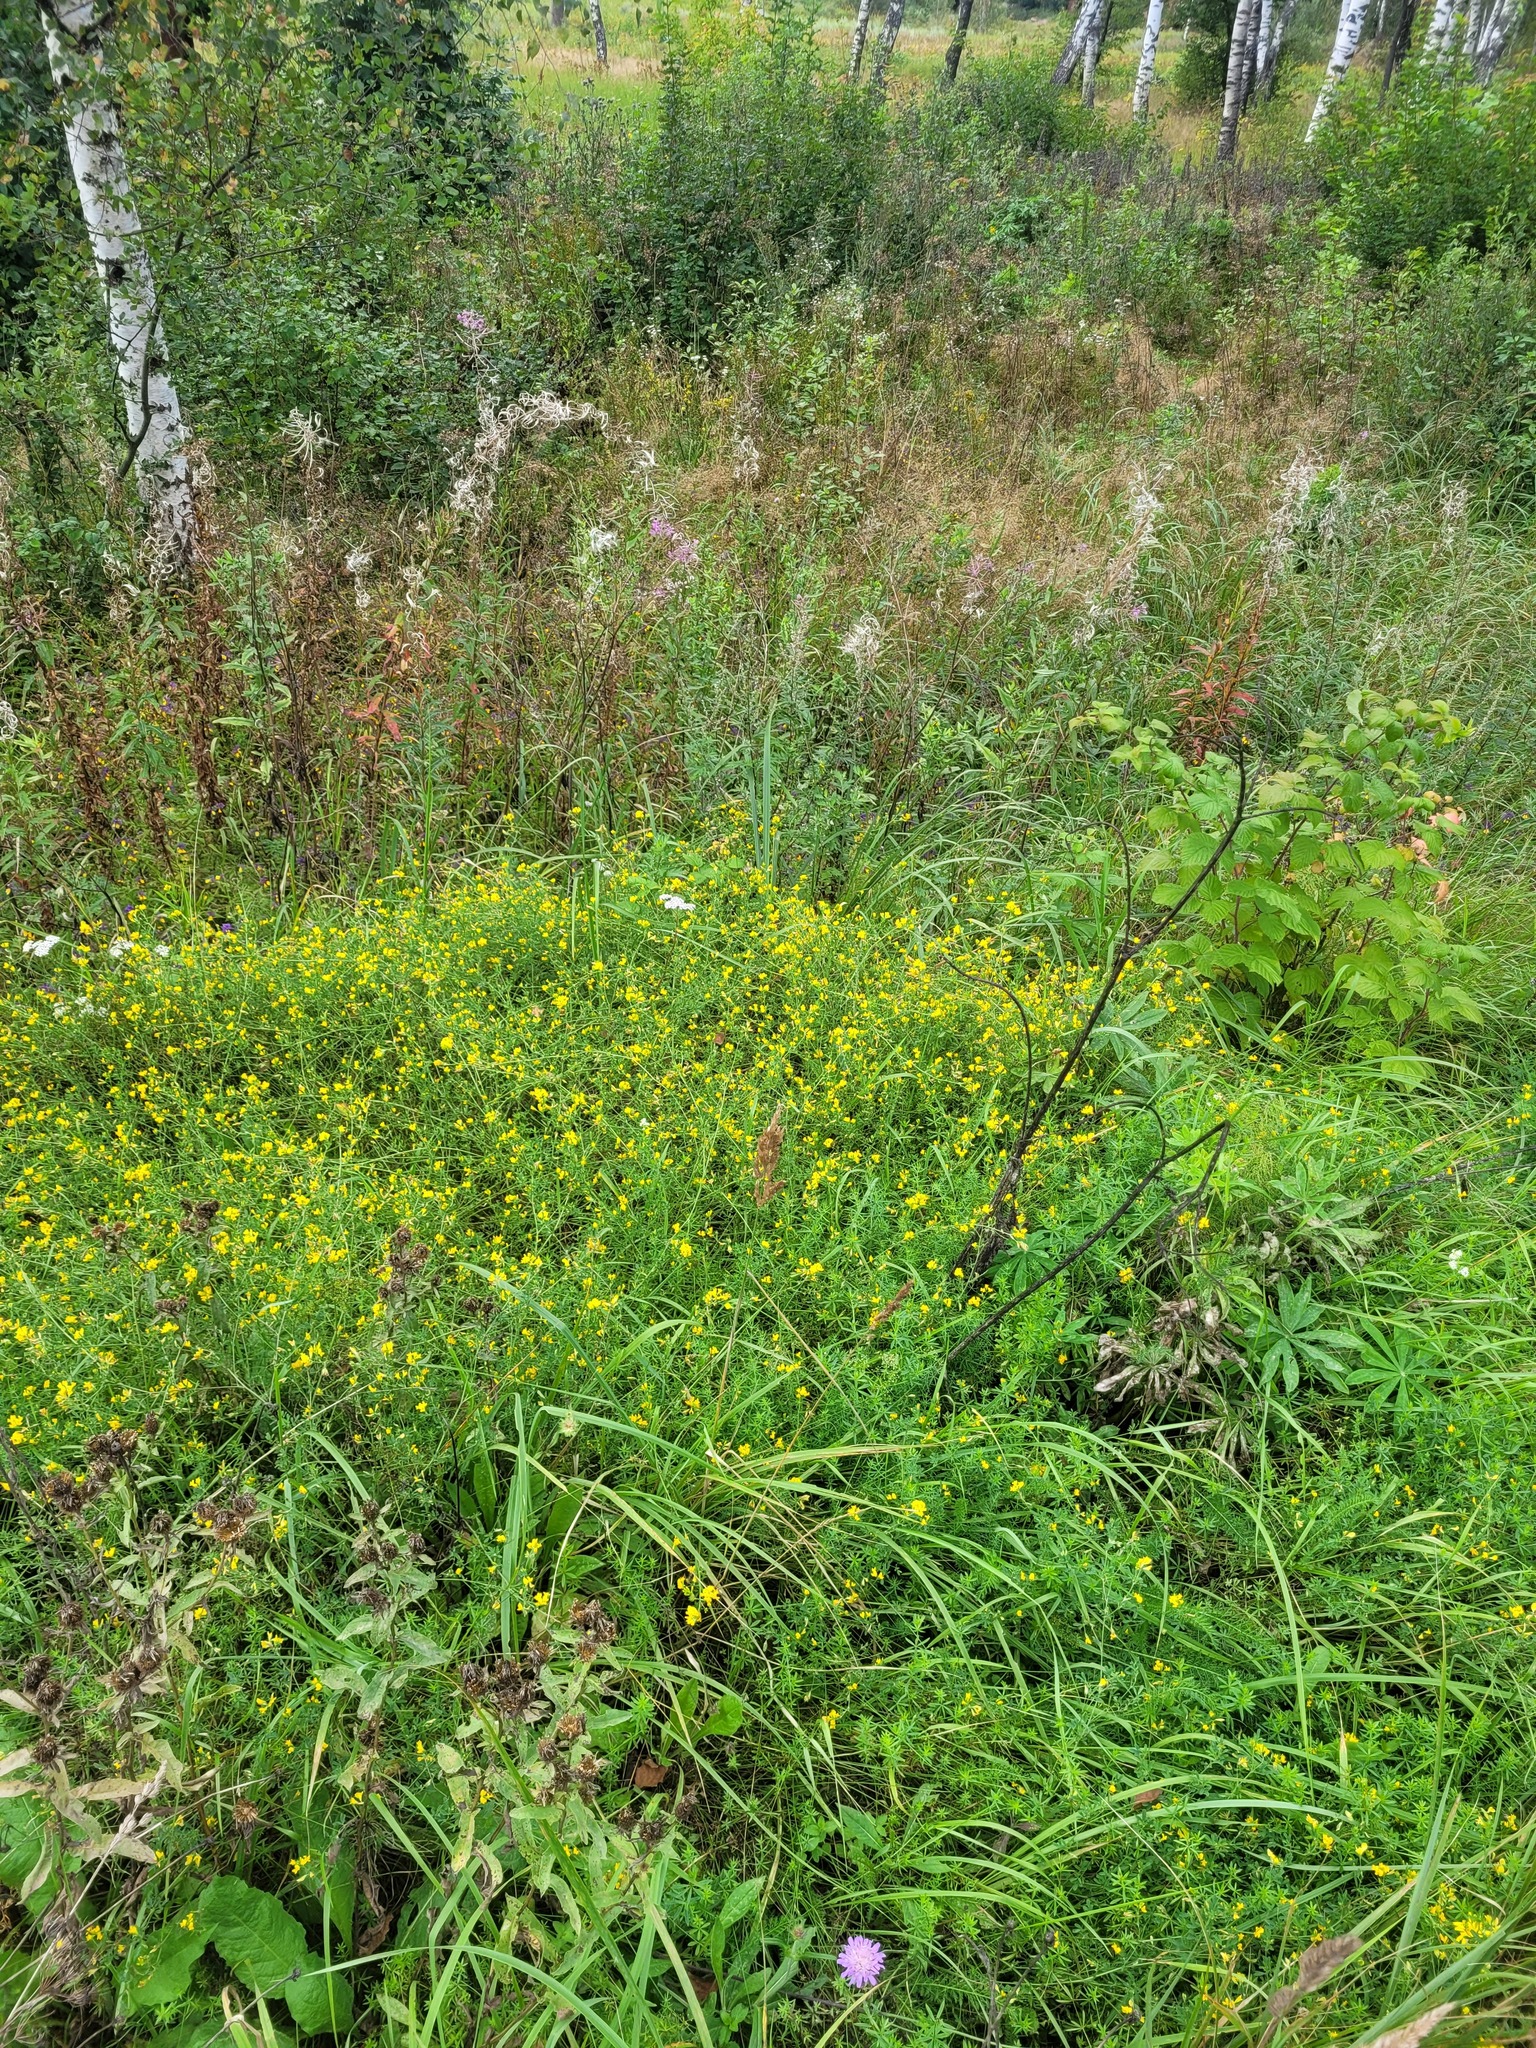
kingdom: Plantae
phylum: Tracheophyta
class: Magnoliopsida
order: Fabales
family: Fabaceae
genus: Medicago
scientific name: Medicago falcata
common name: Sickle medick
